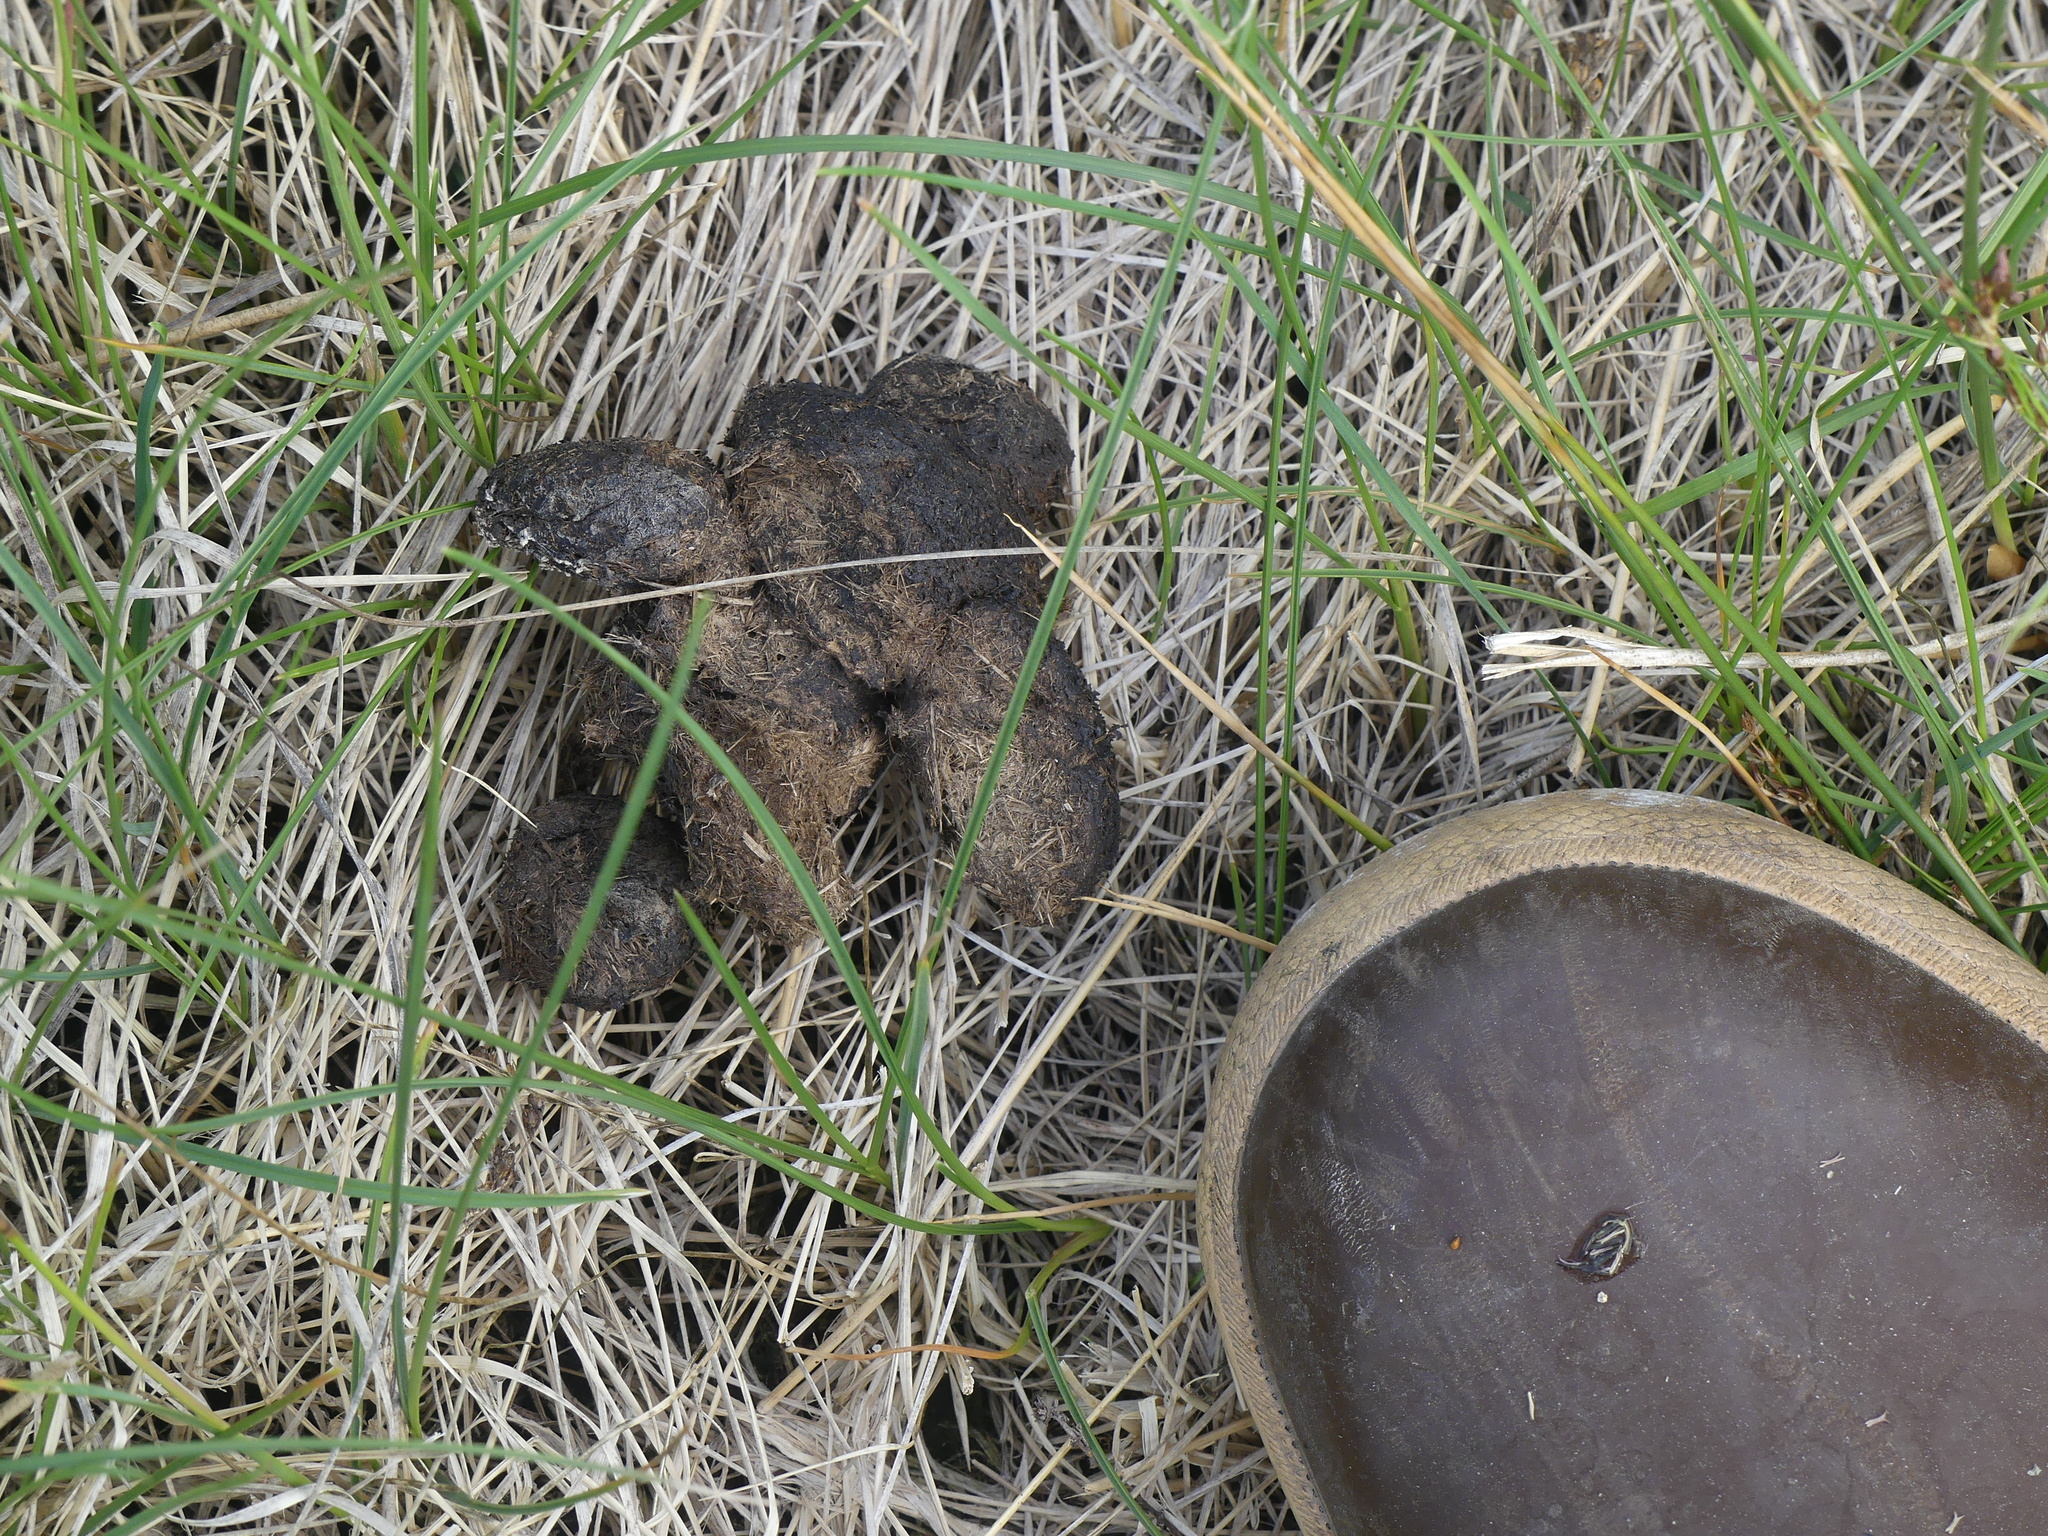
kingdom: Animalia
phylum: Chordata
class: Mammalia
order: Artiodactyla
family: Cervidae
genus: Alces
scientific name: Alces alces
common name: Moose
